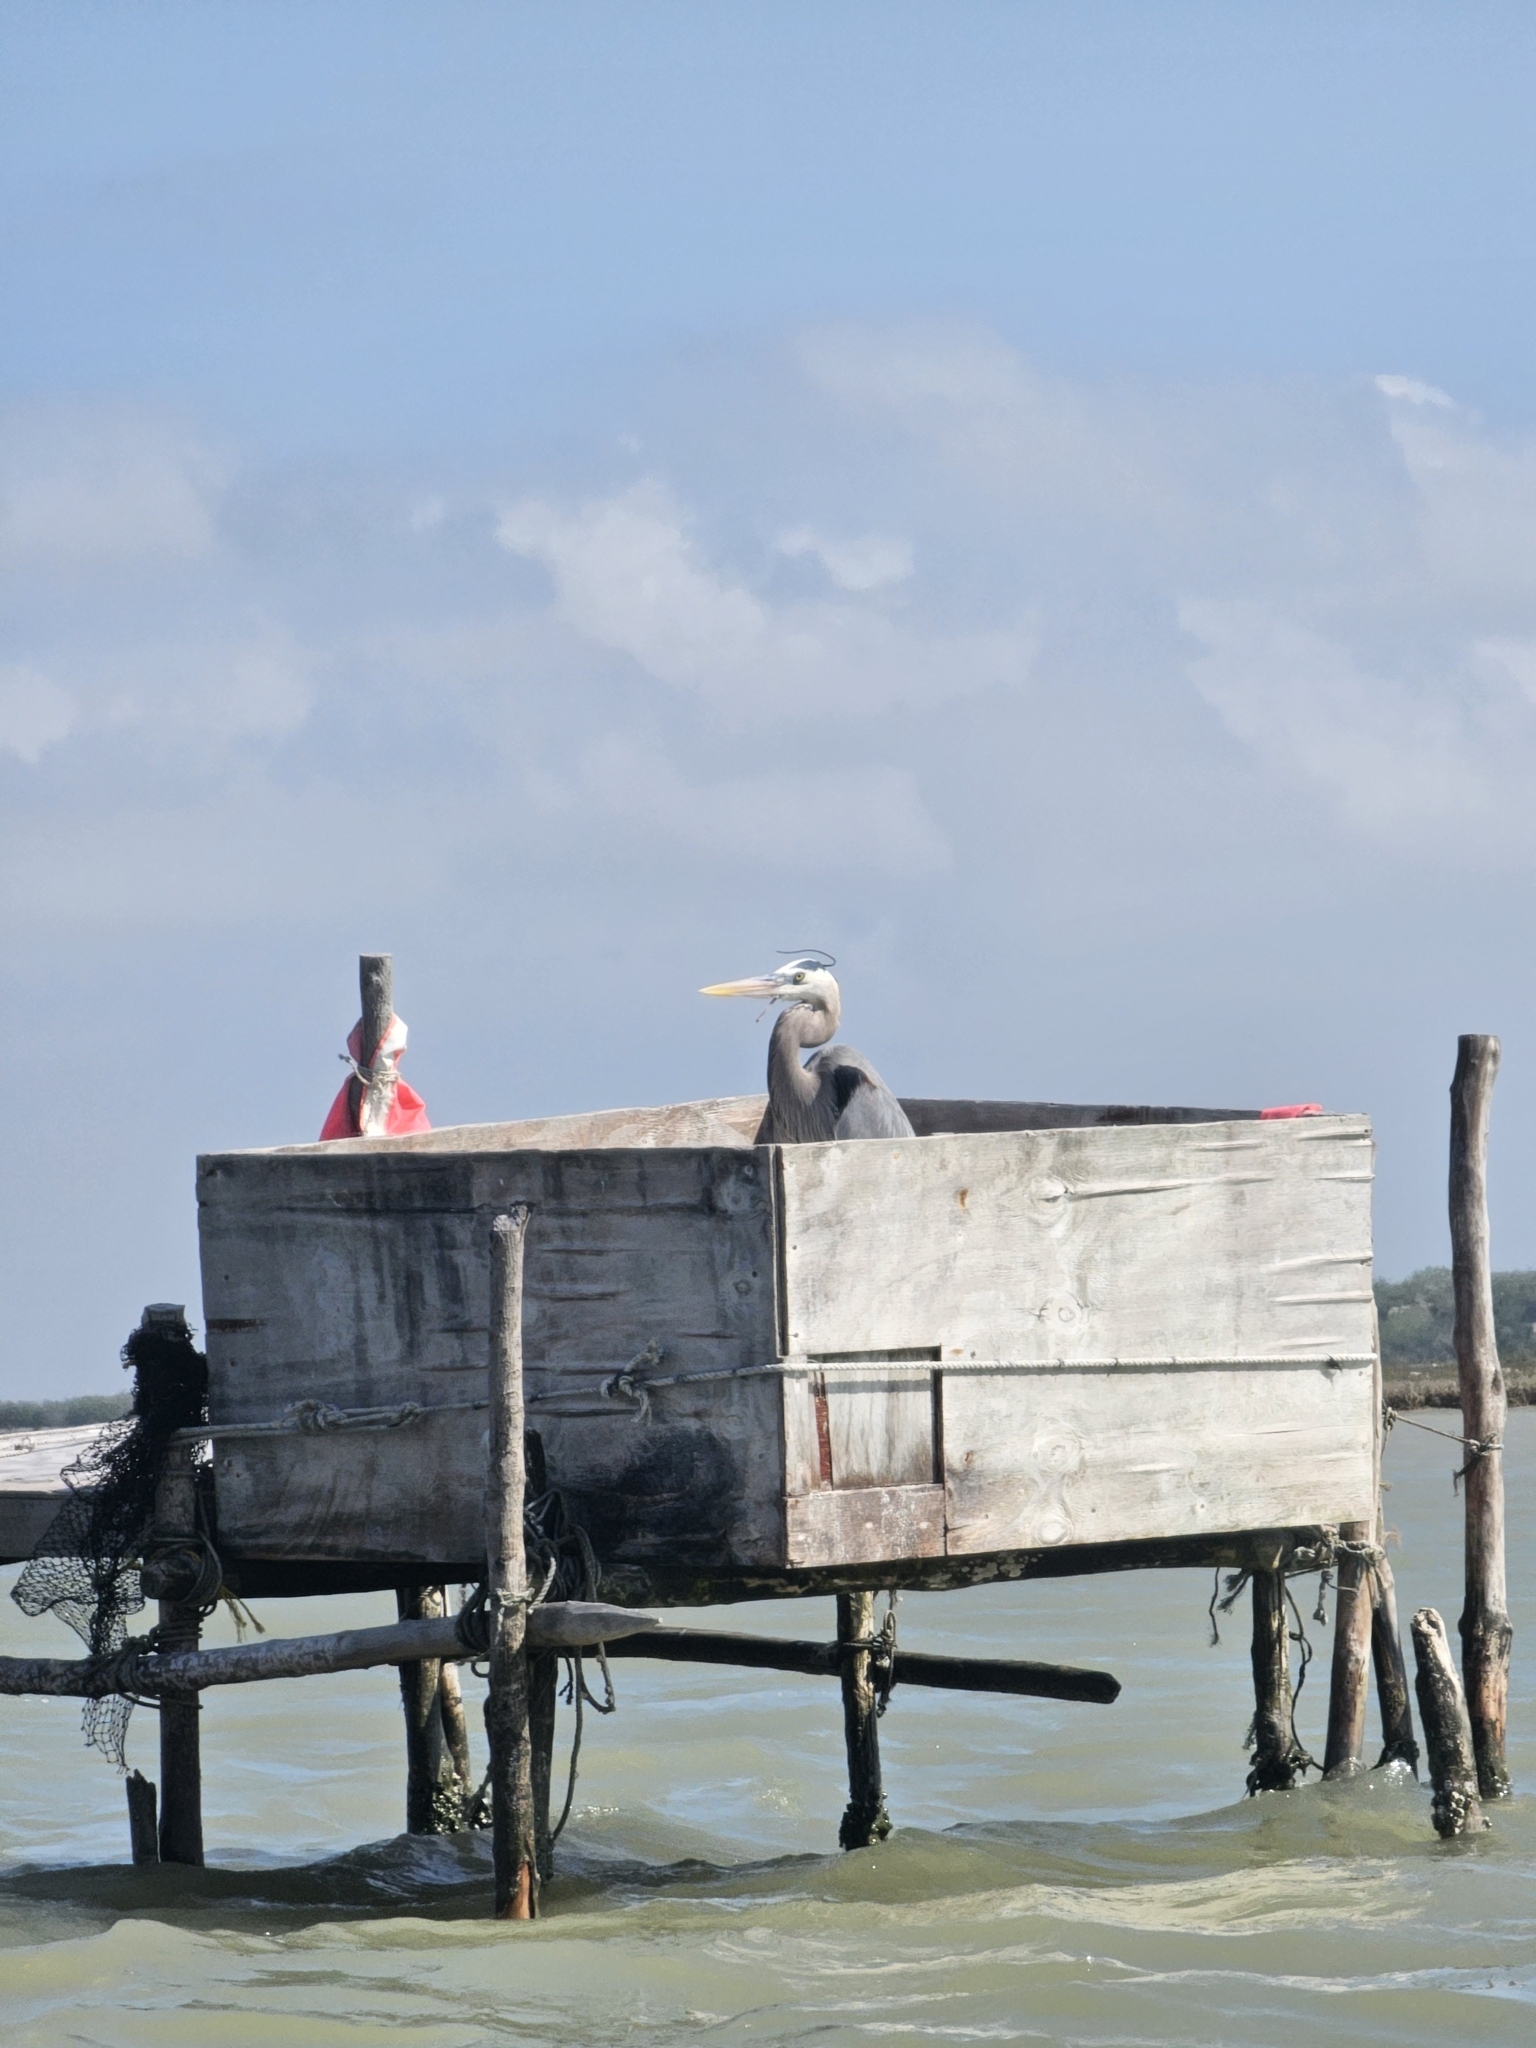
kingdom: Animalia
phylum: Chordata
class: Aves
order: Pelecaniformes
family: Ardeidae
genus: Ardea
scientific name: Ardea herodias
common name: Great blue heron
